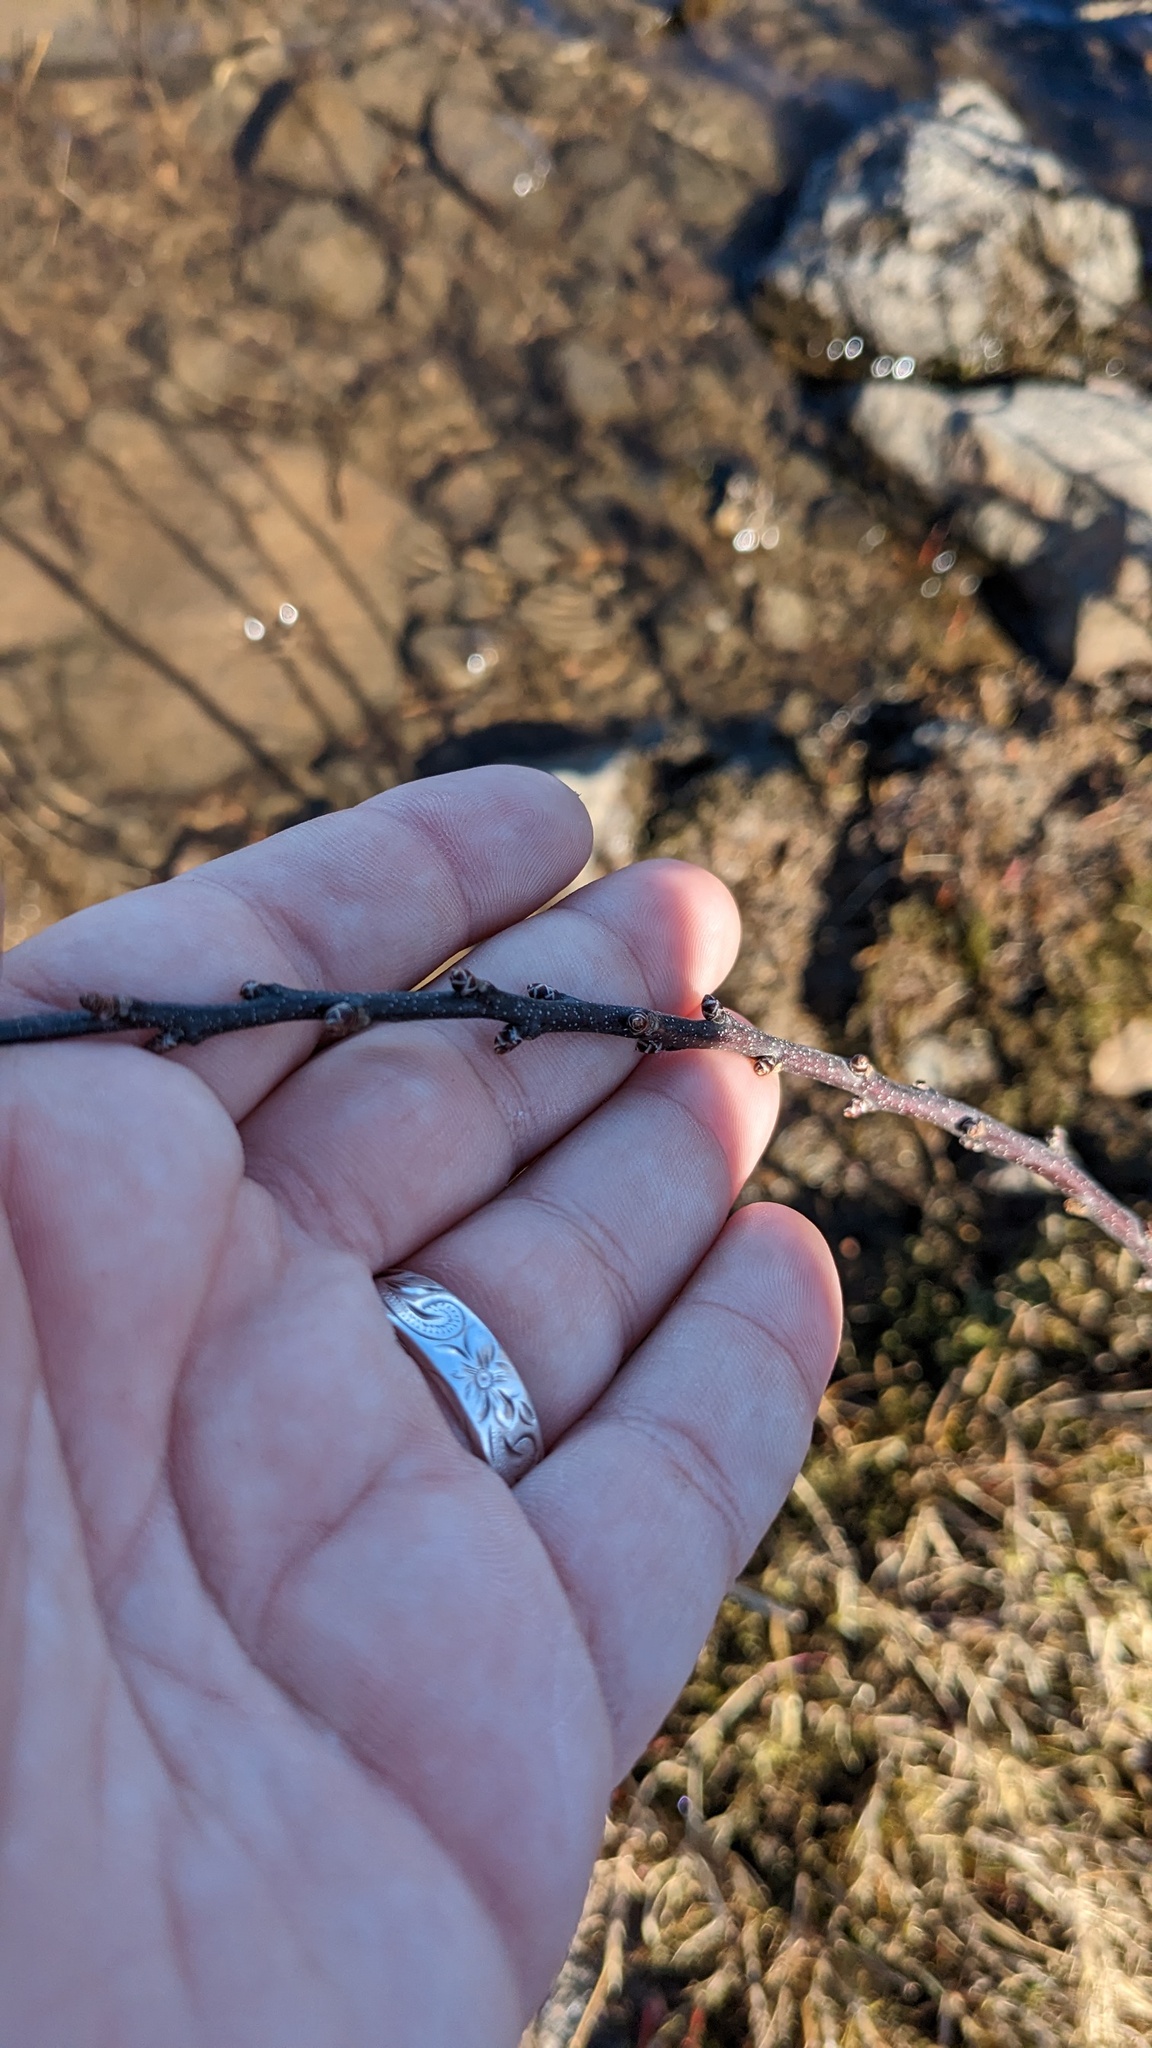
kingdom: Plantae
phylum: Tracheophyta
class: Magnoliopsida
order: Fagales
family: Myricaceae
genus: Morella
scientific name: Morella pensylvanica
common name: Northern bayberry
